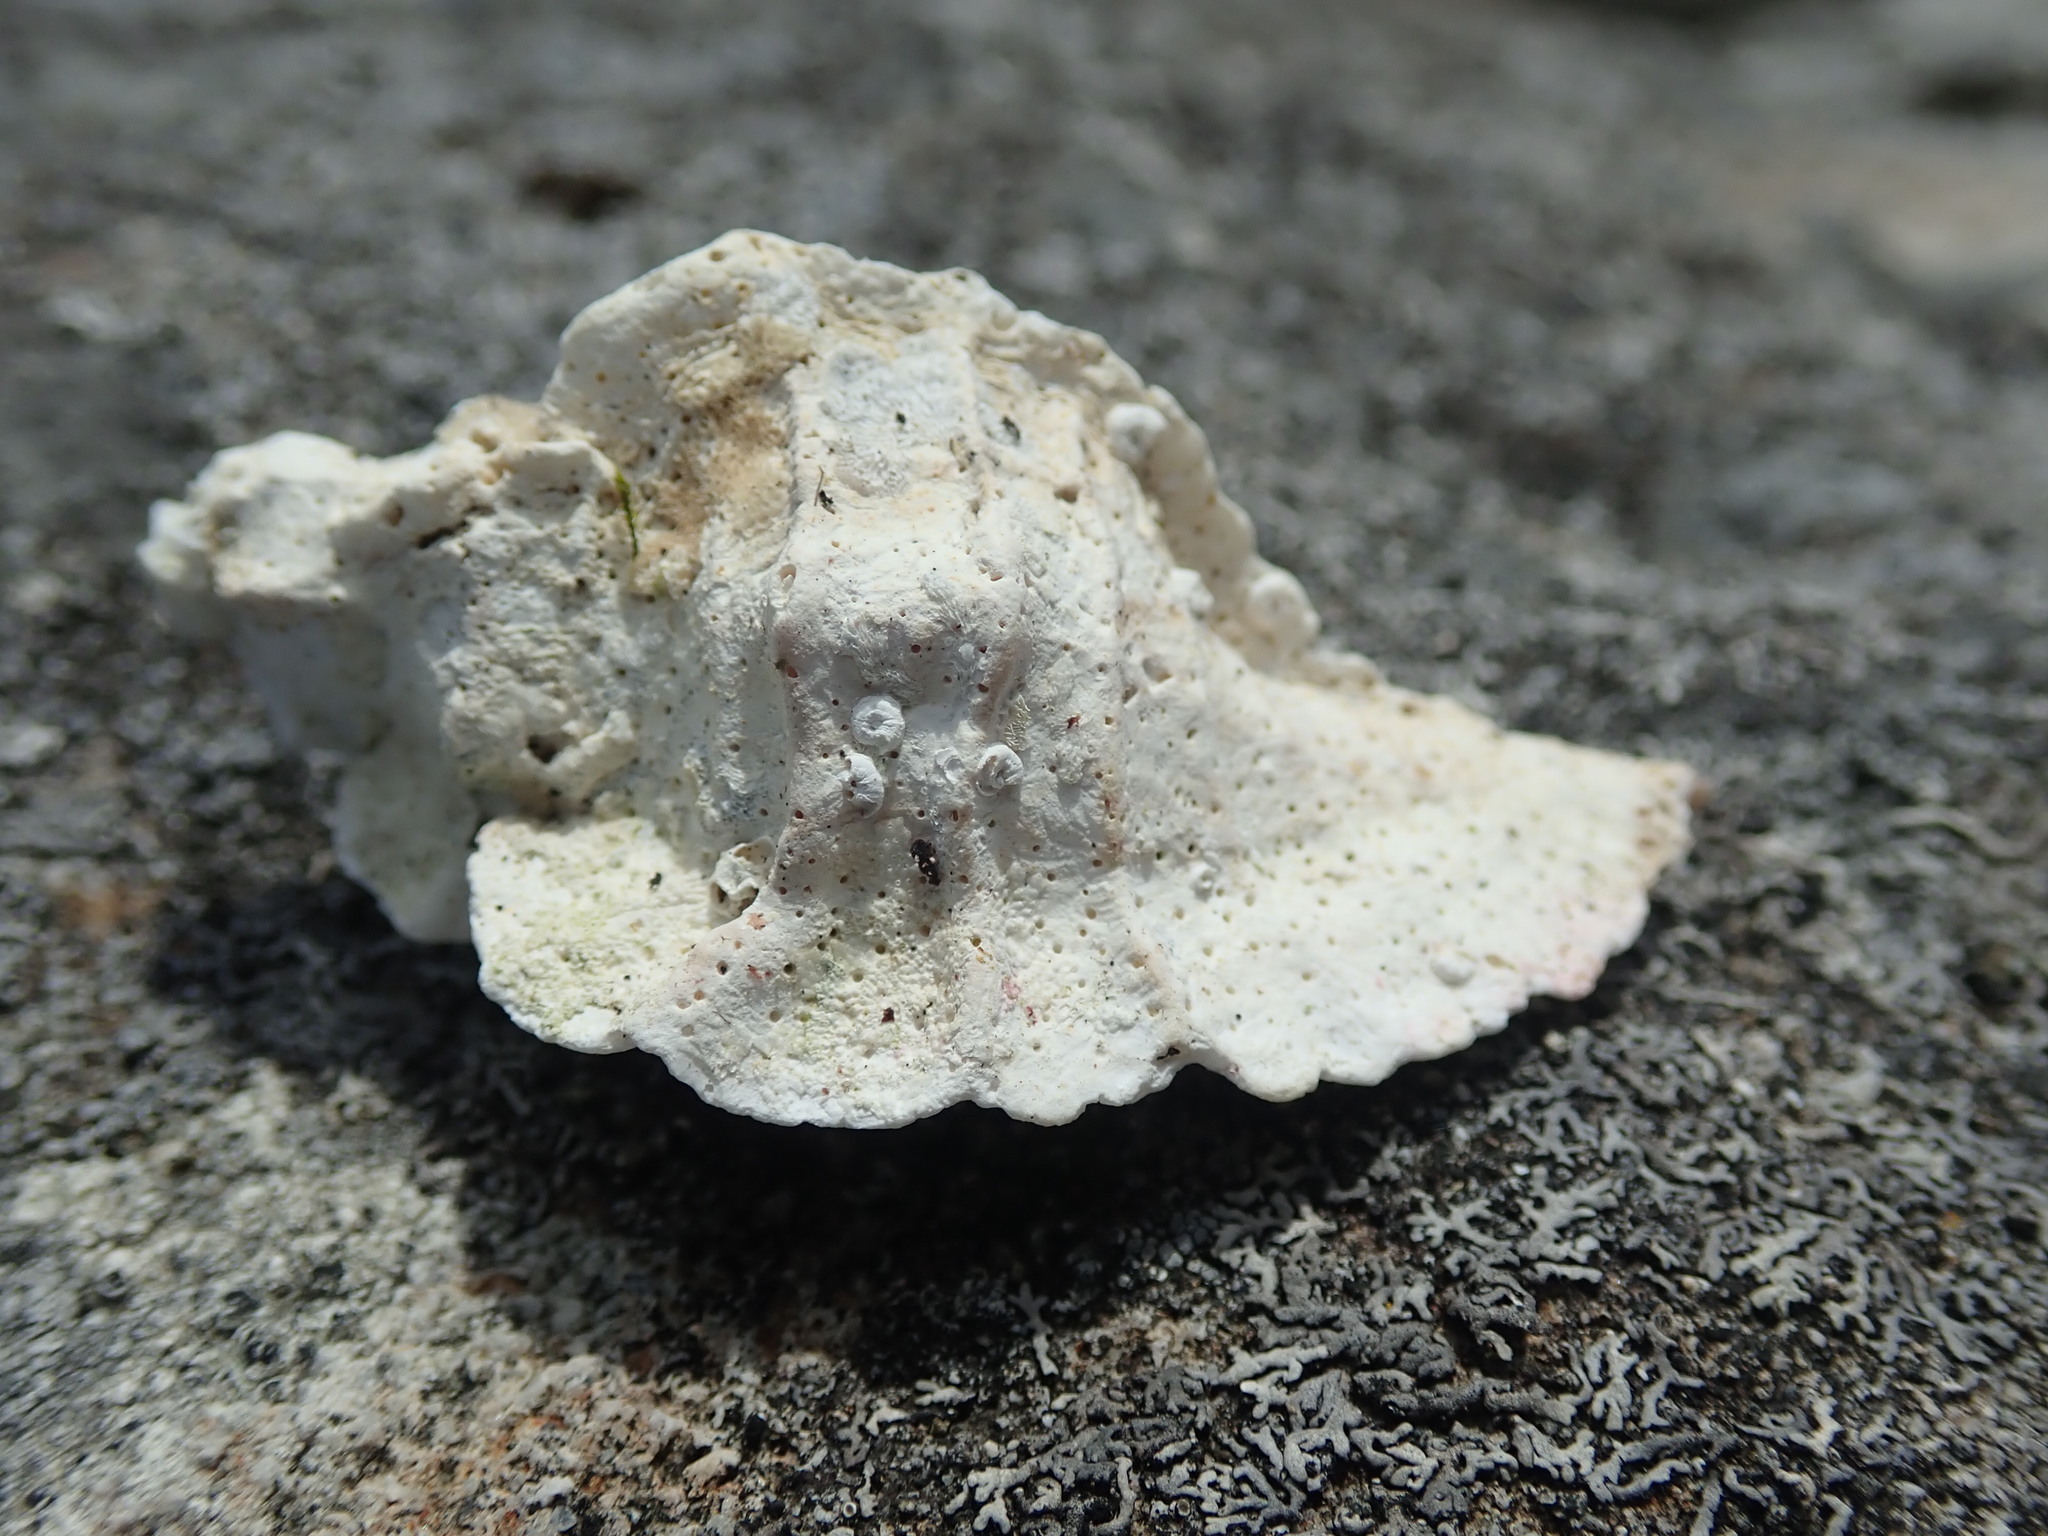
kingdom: Animalia
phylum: Mollusca
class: Gastropoda
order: Neogastropoda
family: Muricidae
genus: Ceratostoma
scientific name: Ceratostoma foliatum
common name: Foliate thorn purpura
